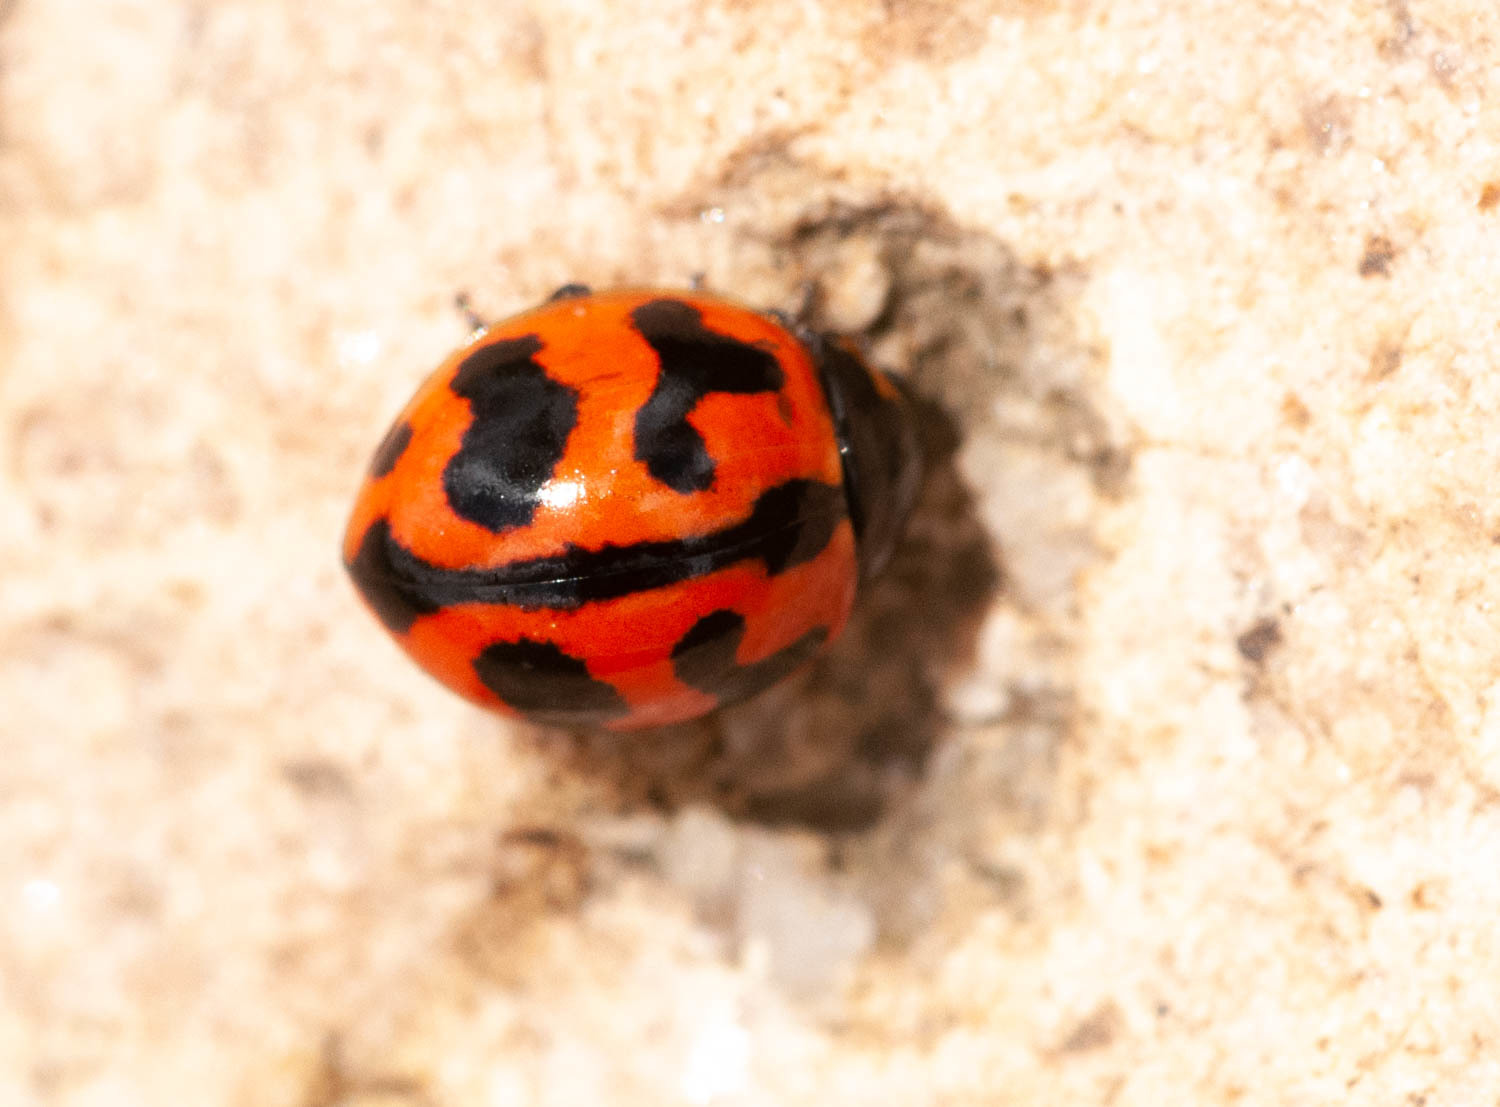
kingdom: Animalia
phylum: Arthropoda
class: Insecta
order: Coleoptera
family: Coccinellidae
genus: Coccinella
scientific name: Coccinella transversalis
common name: Transverse lady beetle
